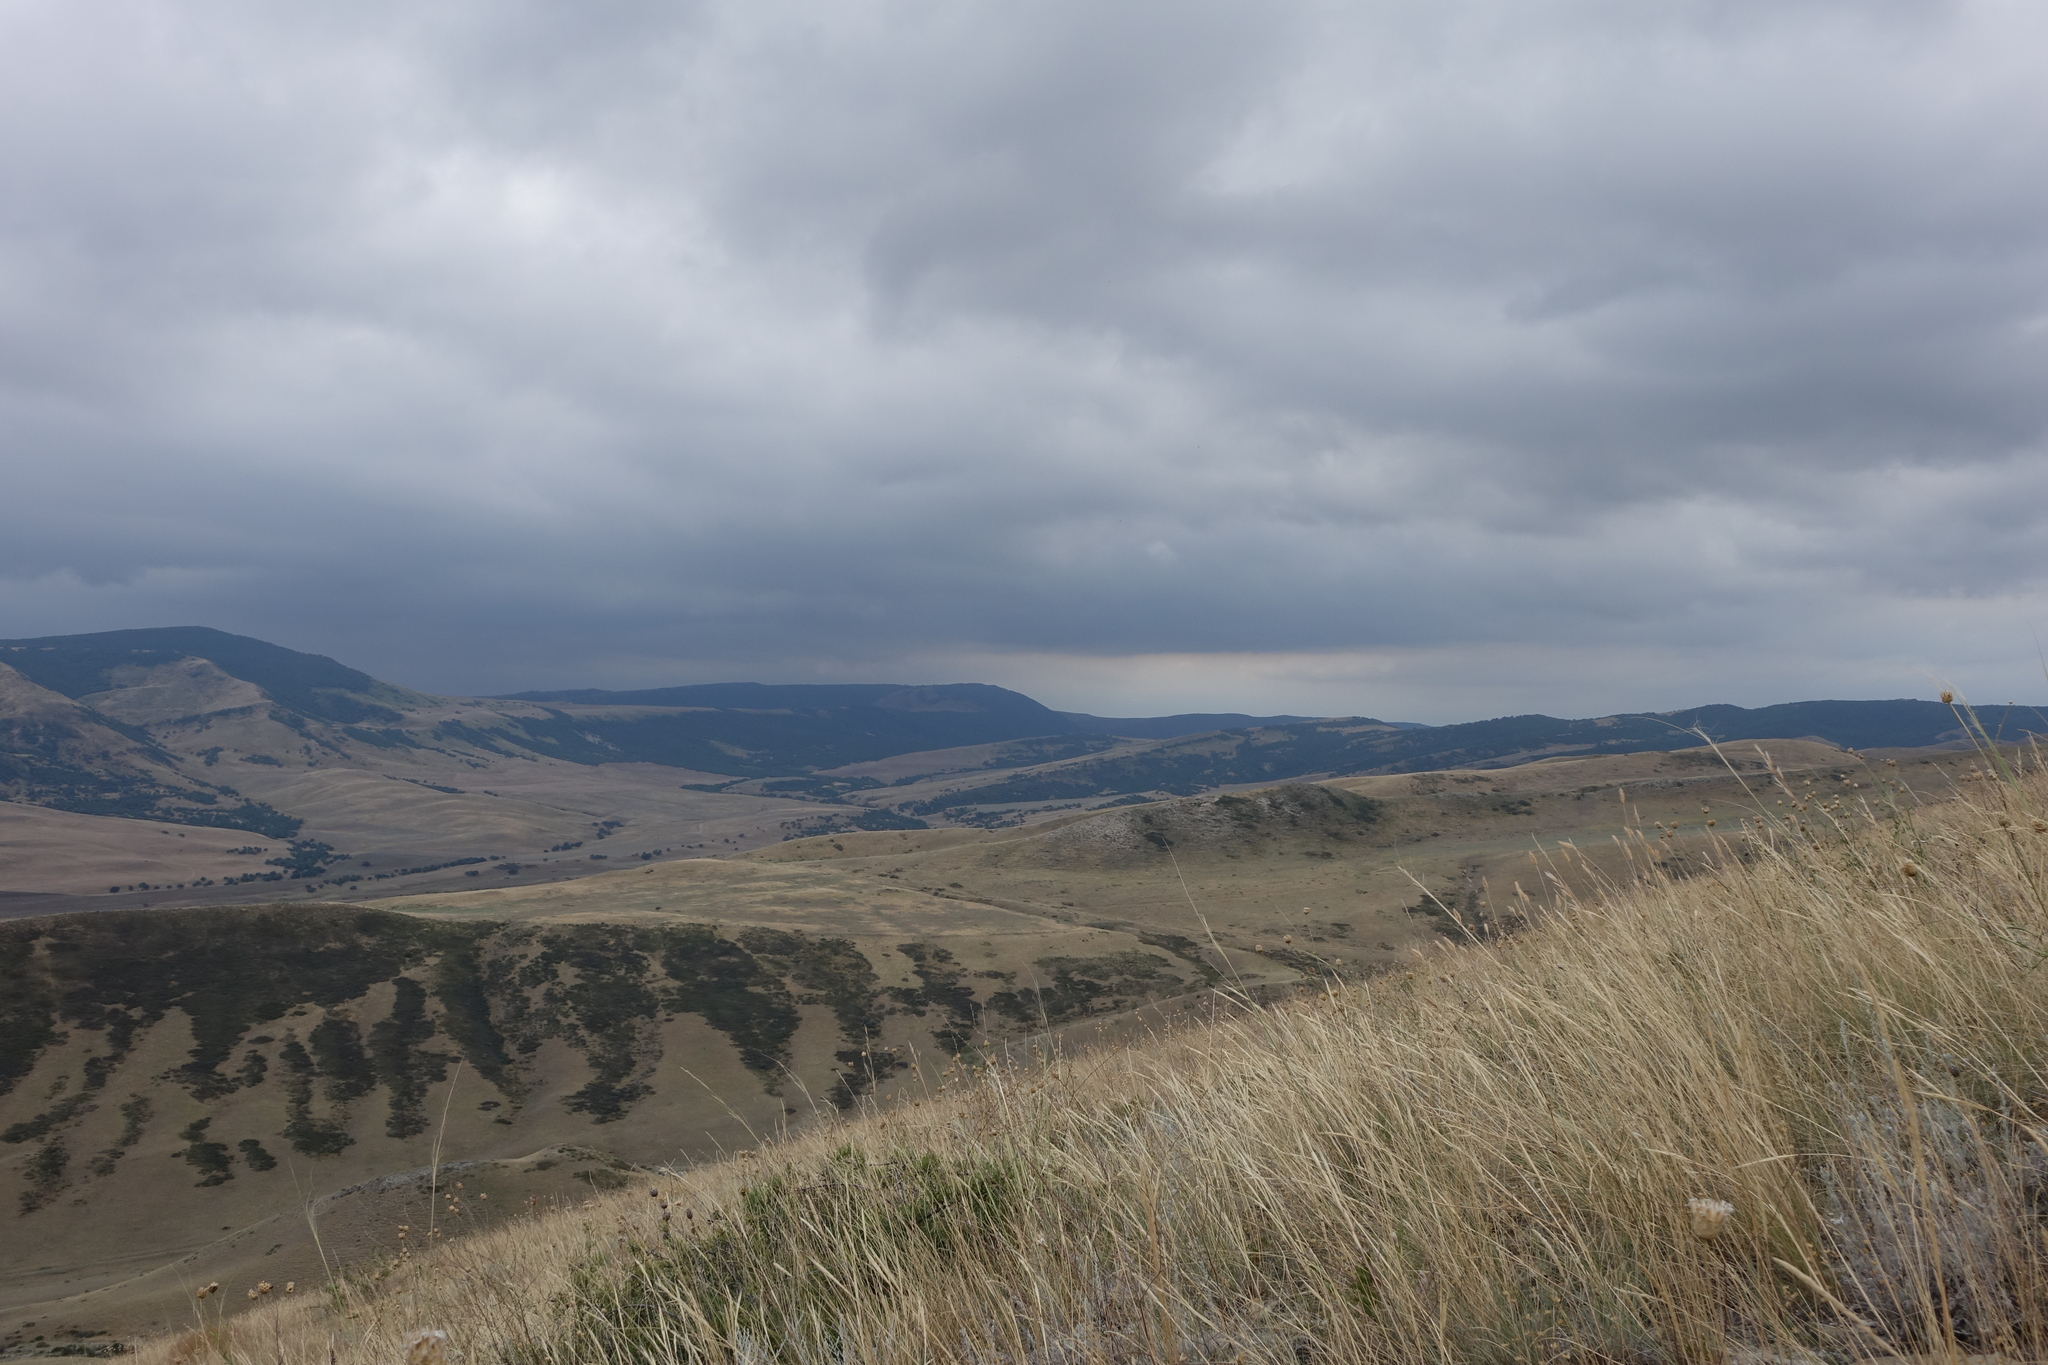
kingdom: Plantae
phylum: Tracheophyta
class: Pinopsida
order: Pinales
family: Cupressaceae
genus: Juniperus
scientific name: Juniperus excelsa
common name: Crimean juniper
